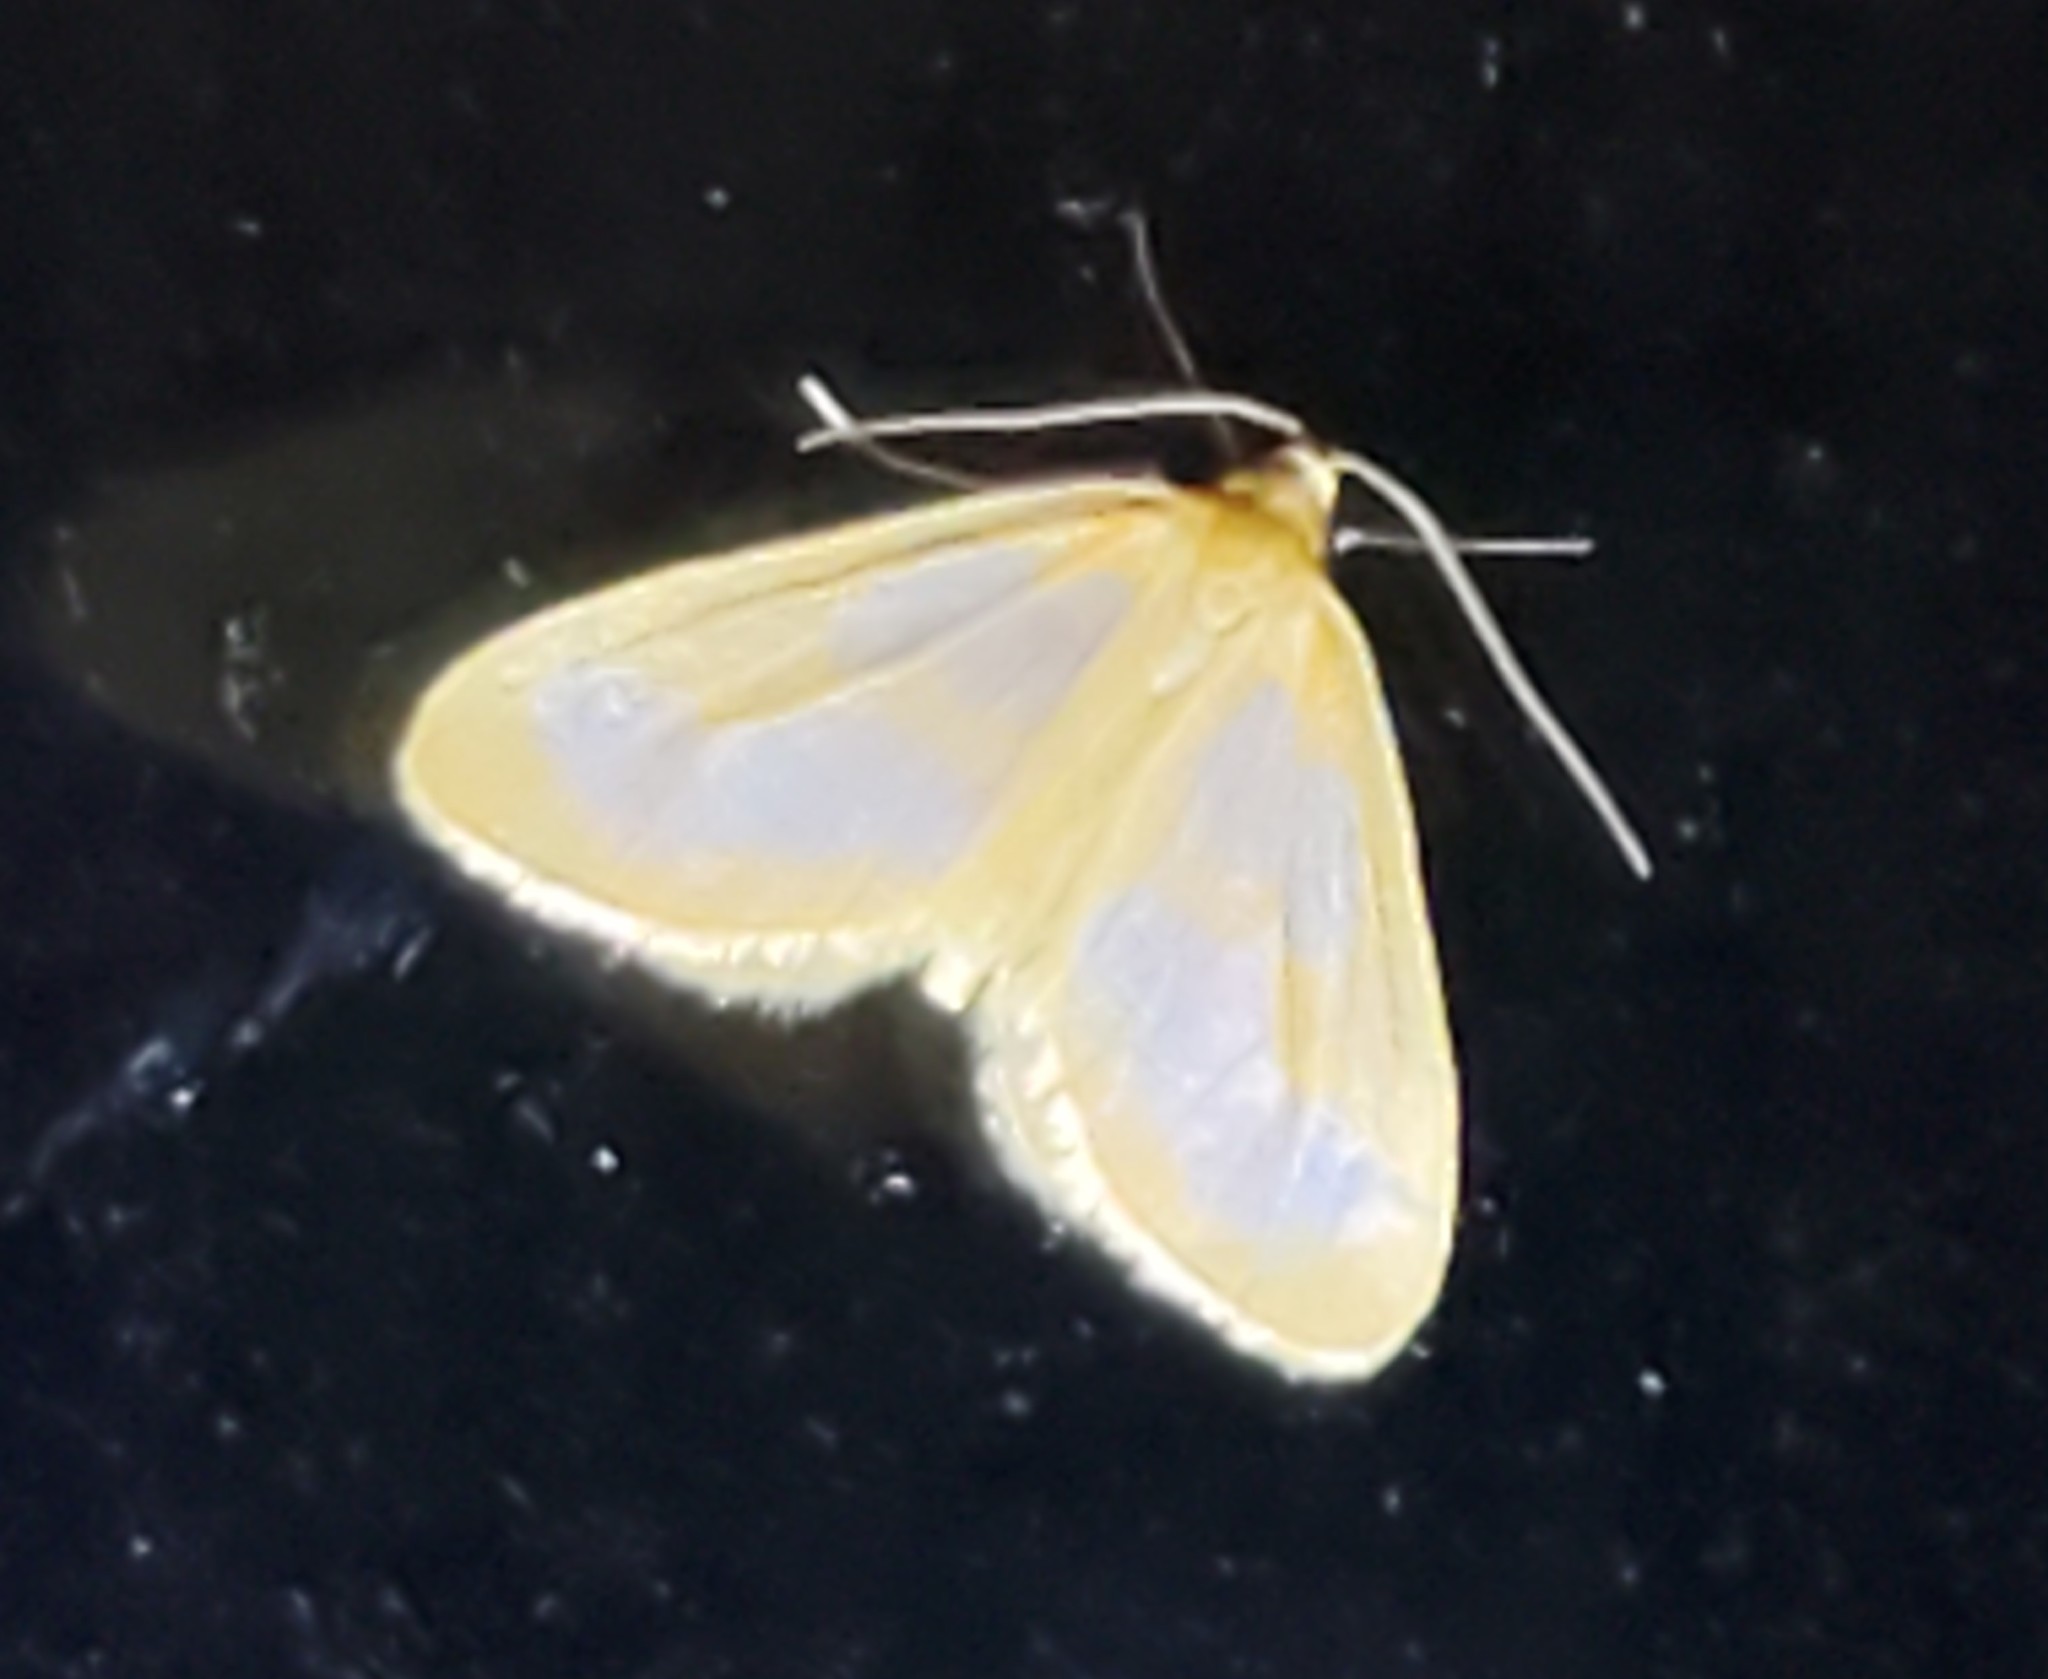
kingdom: Animalia
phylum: Arthropoda
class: Insecta
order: Lepidoptera
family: Geometridae
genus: Eubaphe
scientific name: Eubaphe helveta
